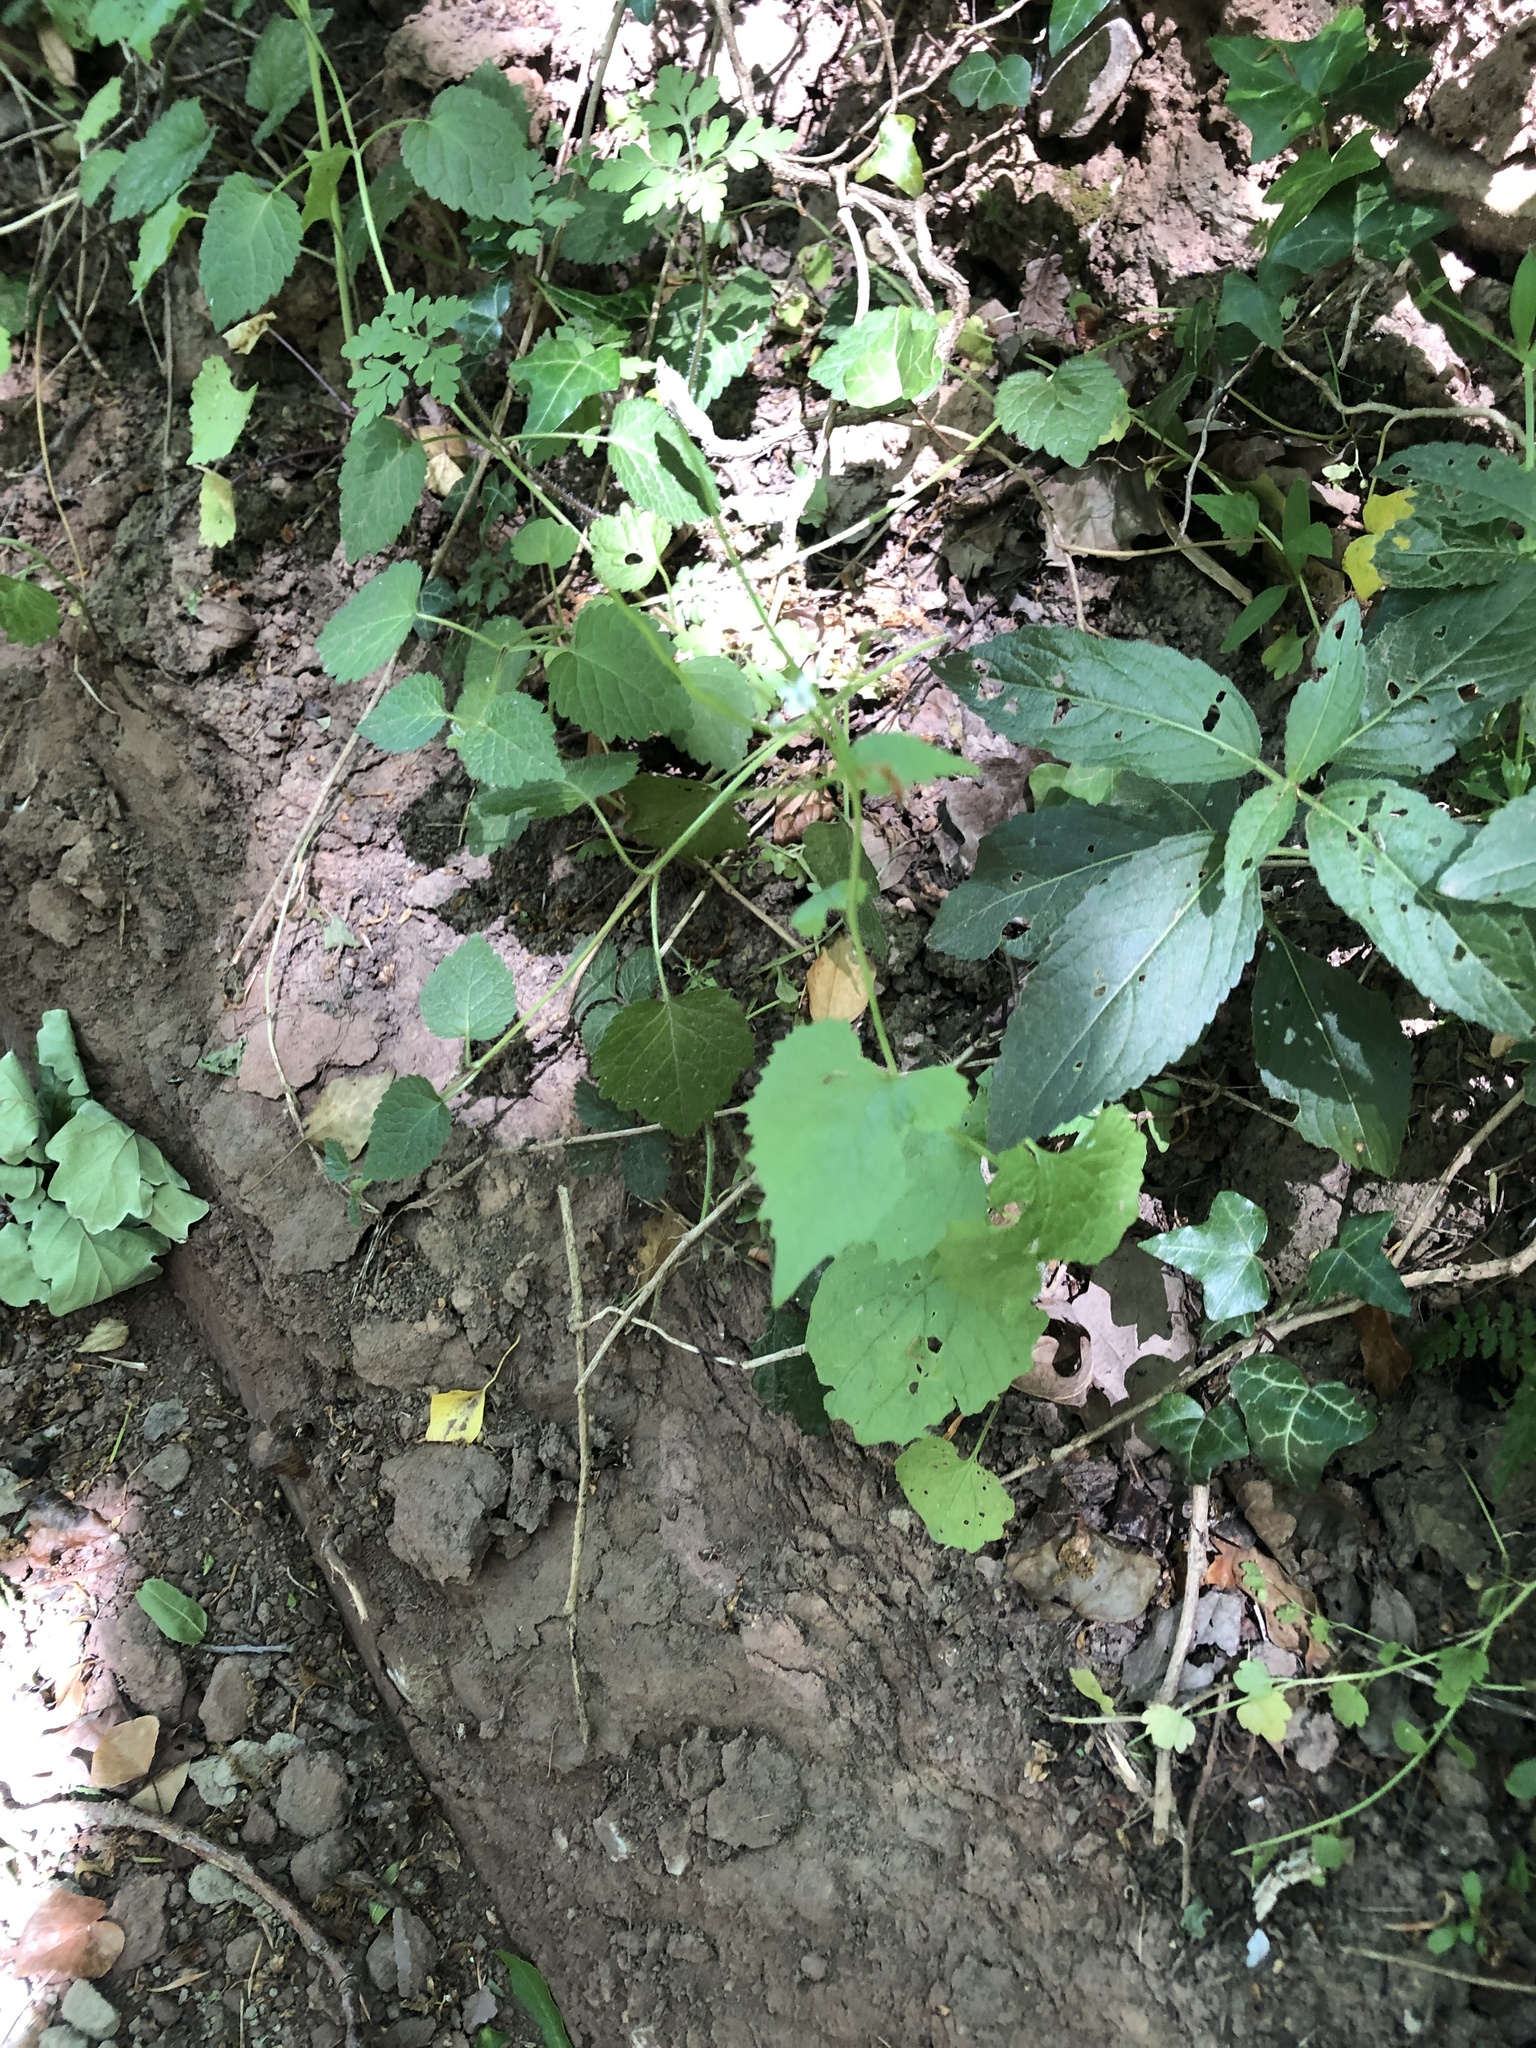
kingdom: Plantae
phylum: Tracheophyta
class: Magnoliopsida
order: Brassicales
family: Brassicaceae
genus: Alliaria
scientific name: Alliaria petiolata
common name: Garlic mustard
